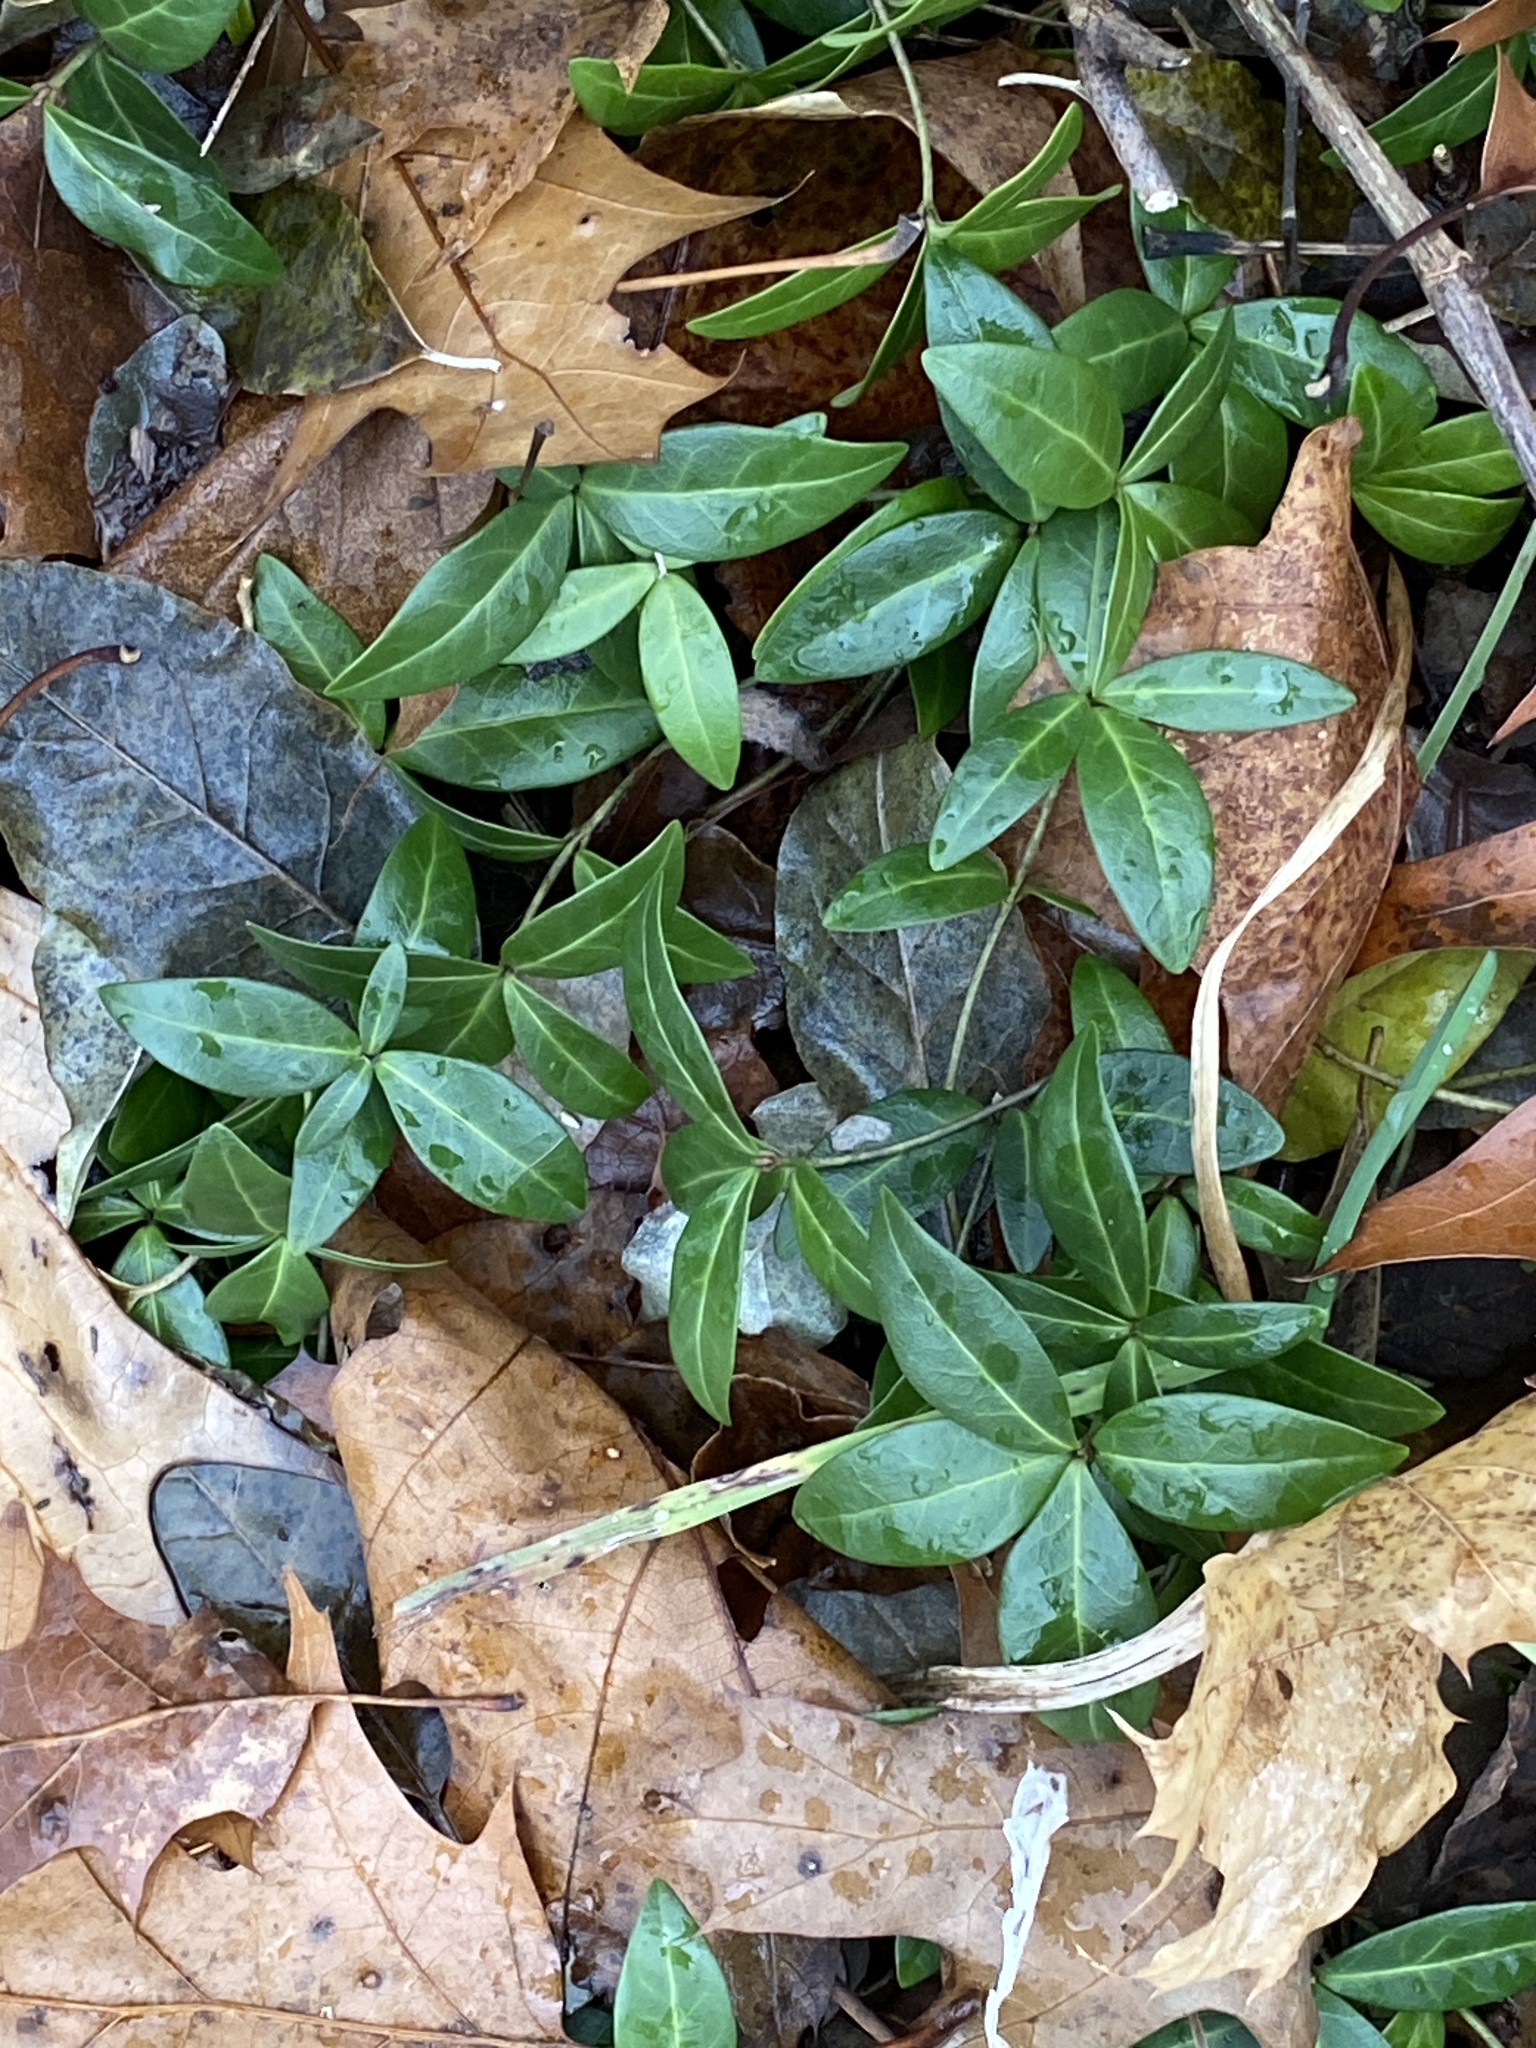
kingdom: Plantae
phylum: Tracheophyta
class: Magnoliopsida
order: Gentianales
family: Apocynaceae
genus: Vinca
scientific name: Vinca minor
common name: Lesser periwinkle
